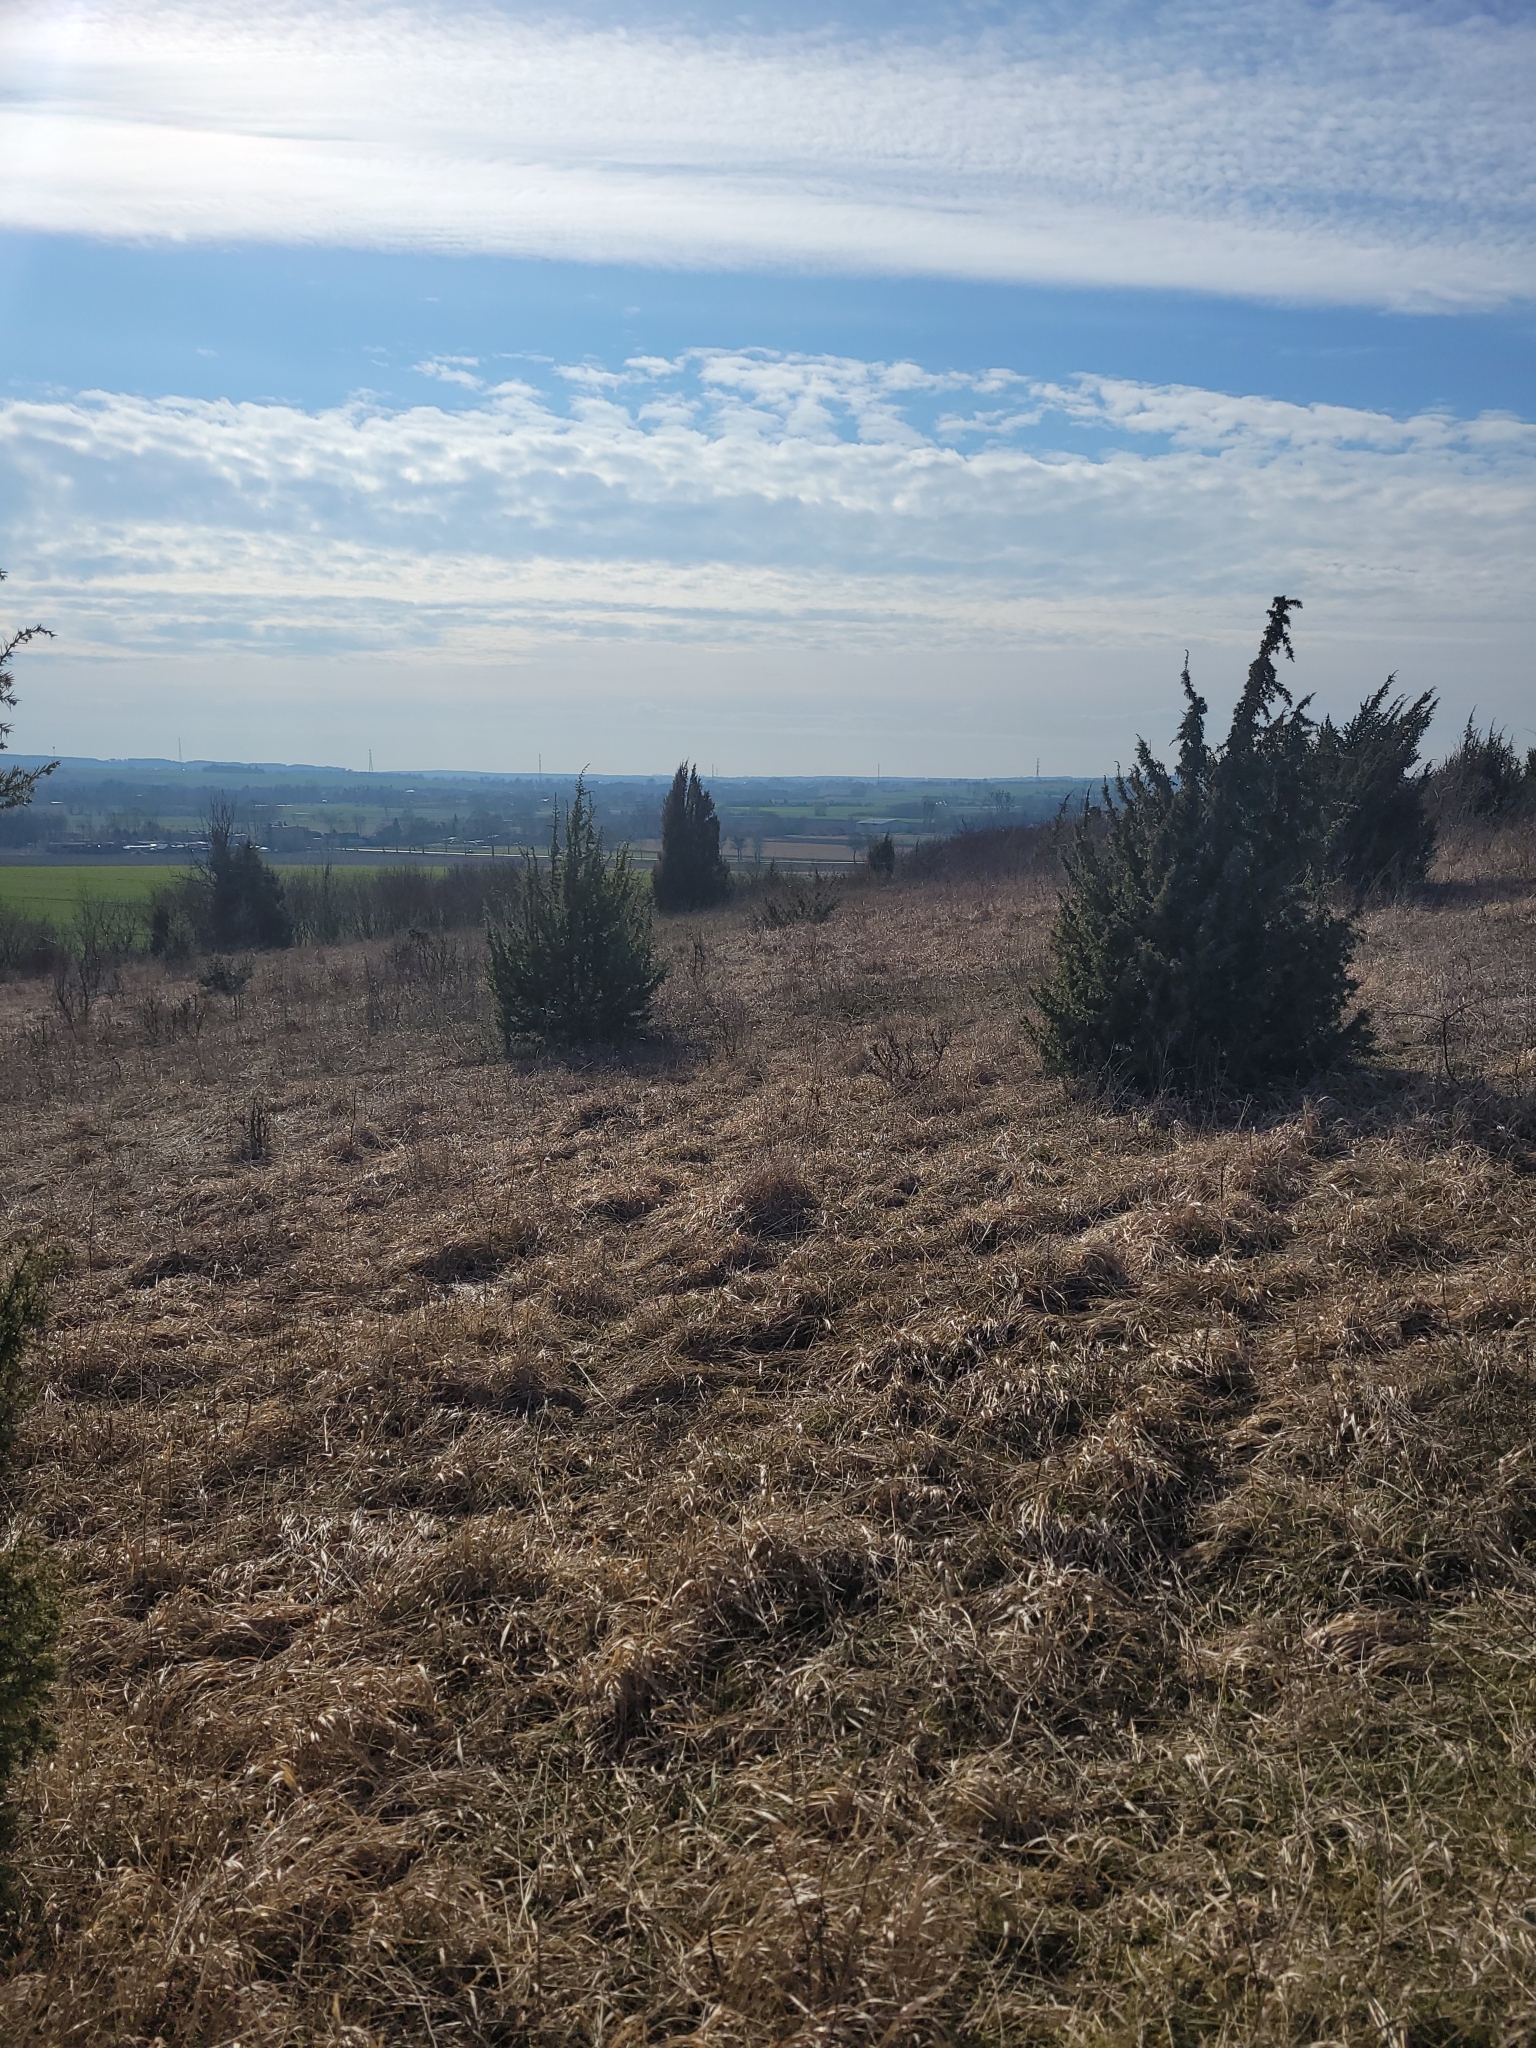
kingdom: Plantae
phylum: Tracheophyta
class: Pinopsida
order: Pinales
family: Cupressaceae
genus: Juniperus
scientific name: Juniperus communis
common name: Common juniper
